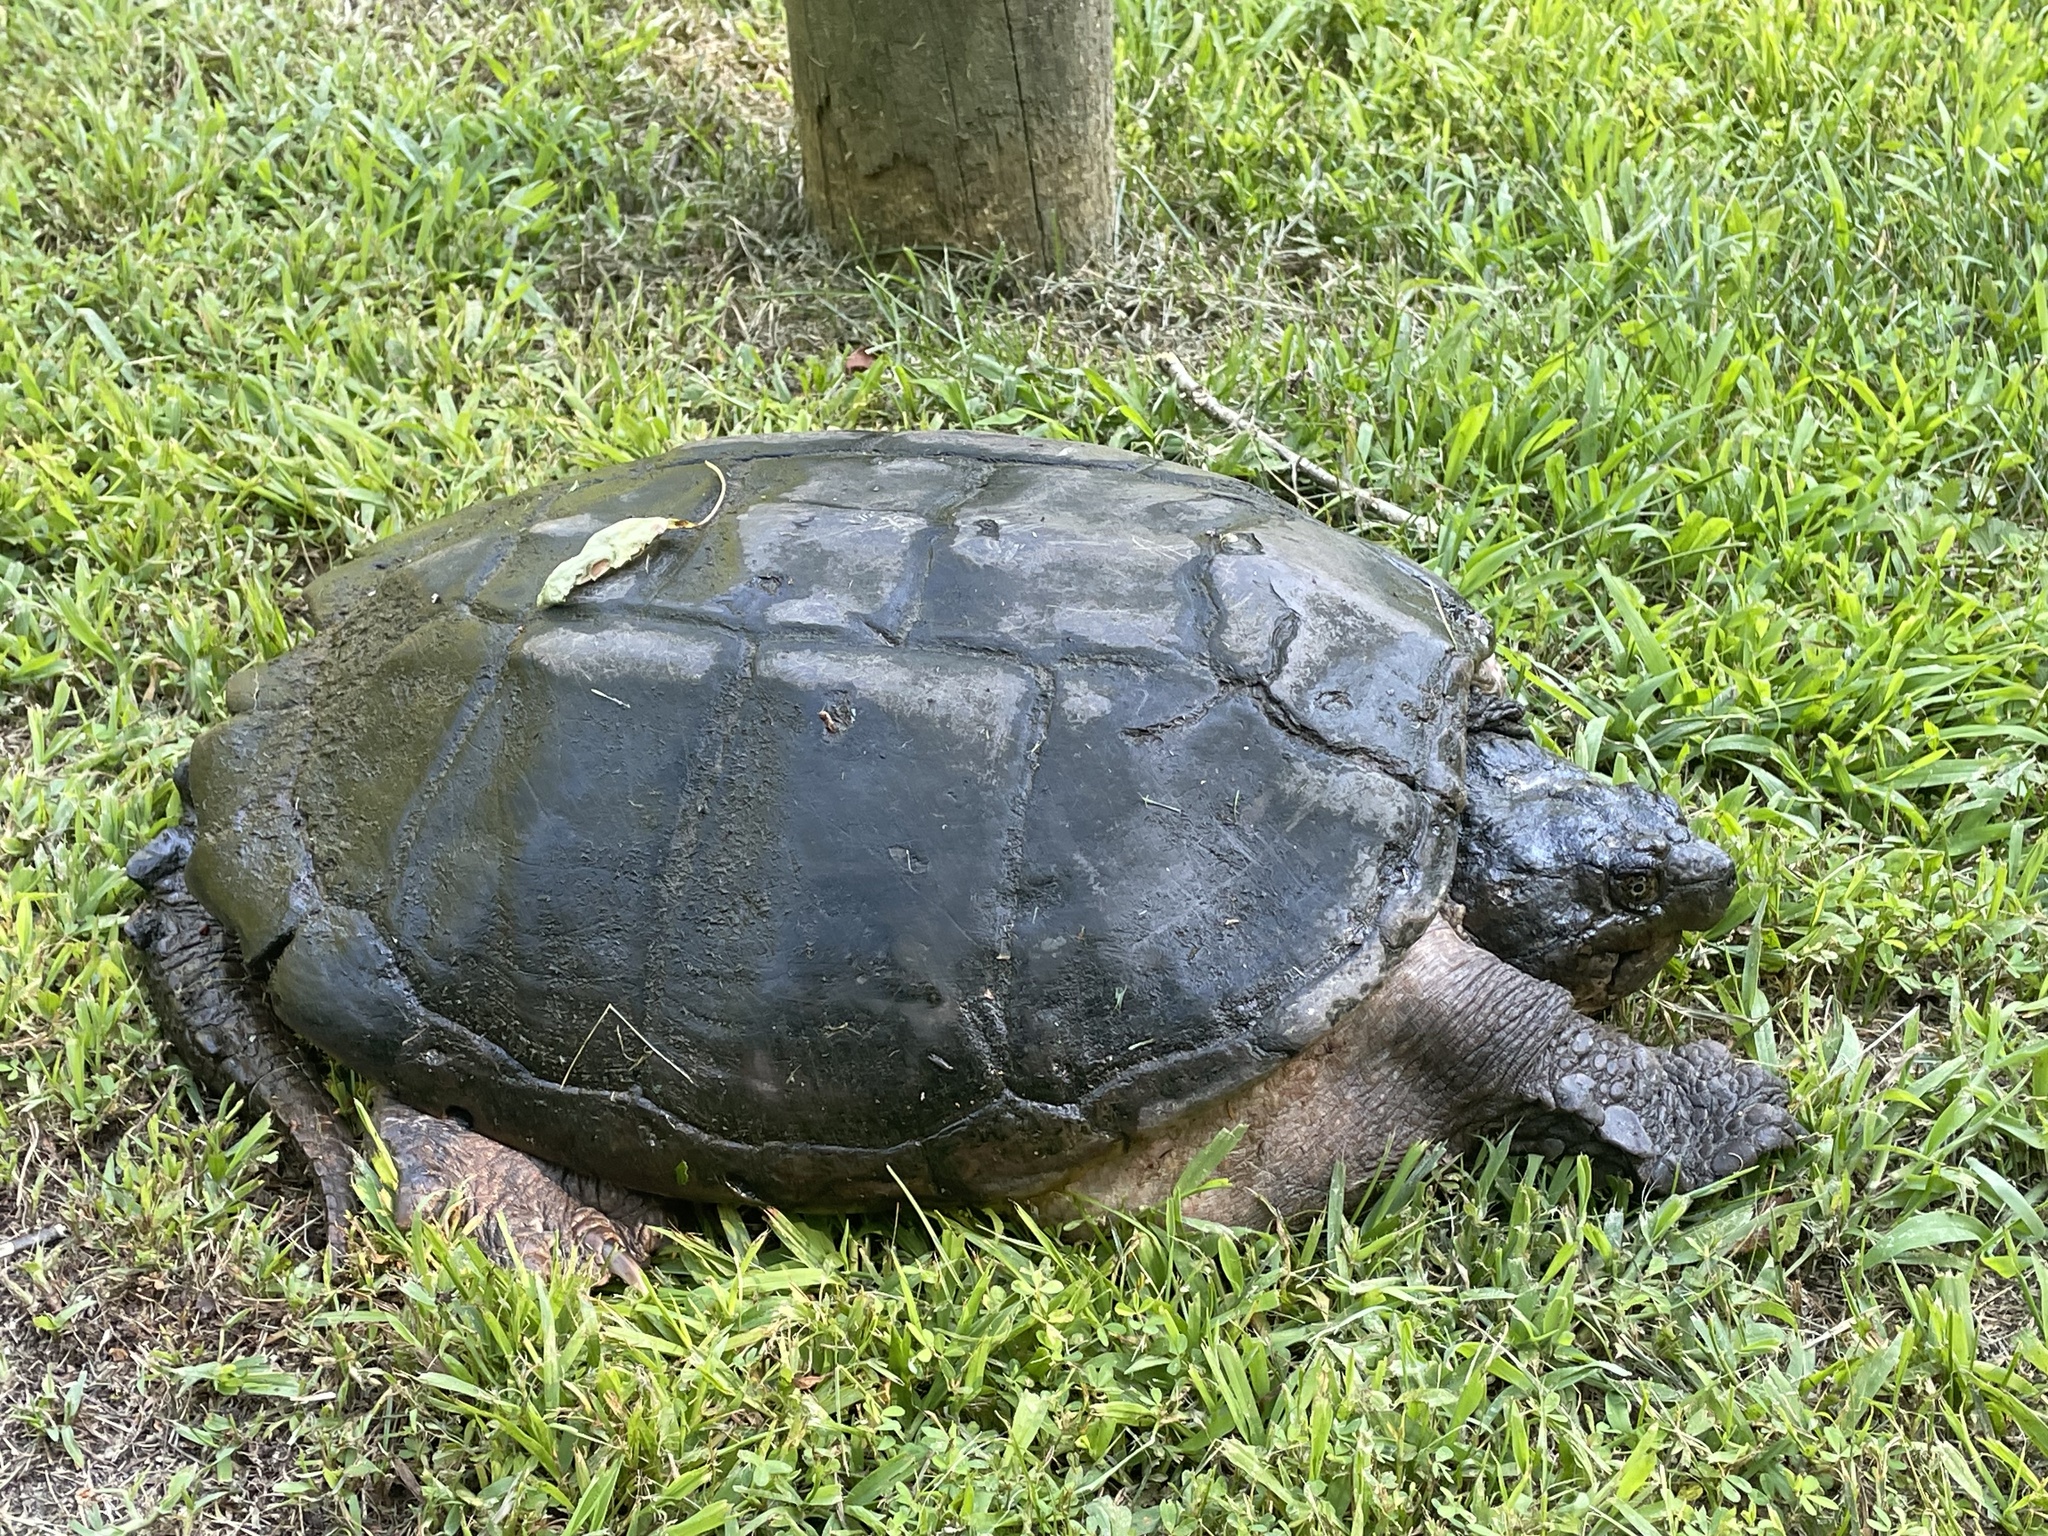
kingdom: Animalia
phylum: Chordata
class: Testudines
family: Chelydridae
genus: Chelydra
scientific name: Chelydra serpentina
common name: Common snapping turtle
